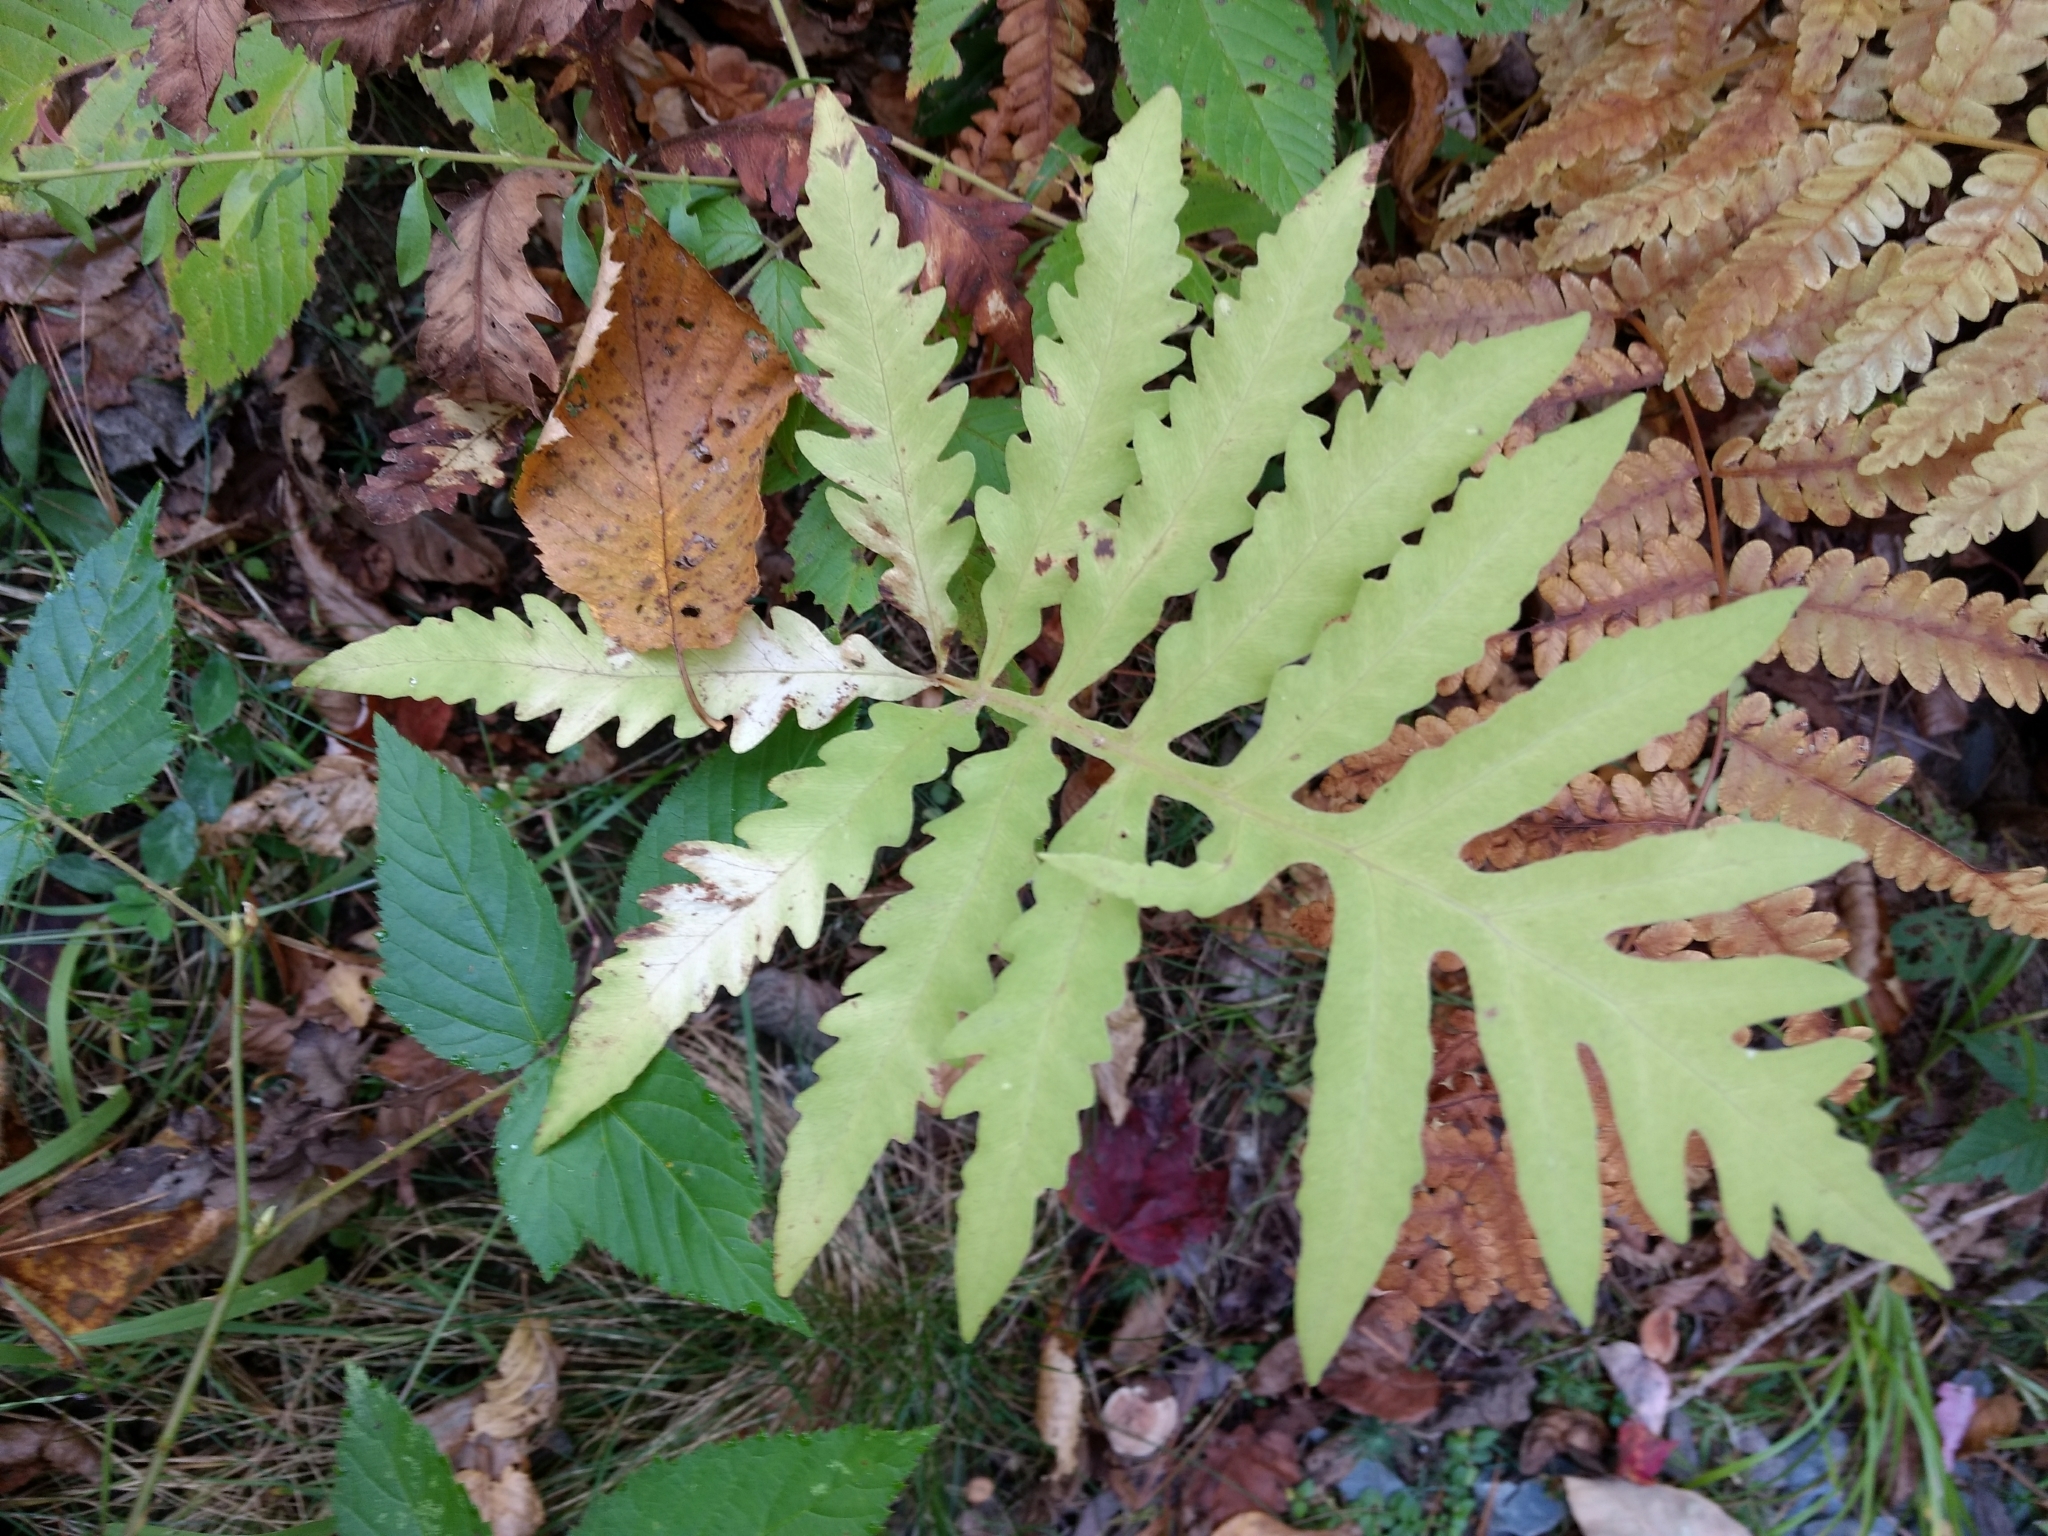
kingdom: Plantae
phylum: Tracheophyta
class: Polypodiopsida
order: Polypodiales
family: Onocleaceae
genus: Onoclea
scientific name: Onoclea sensibilis
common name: Sensitive fern
